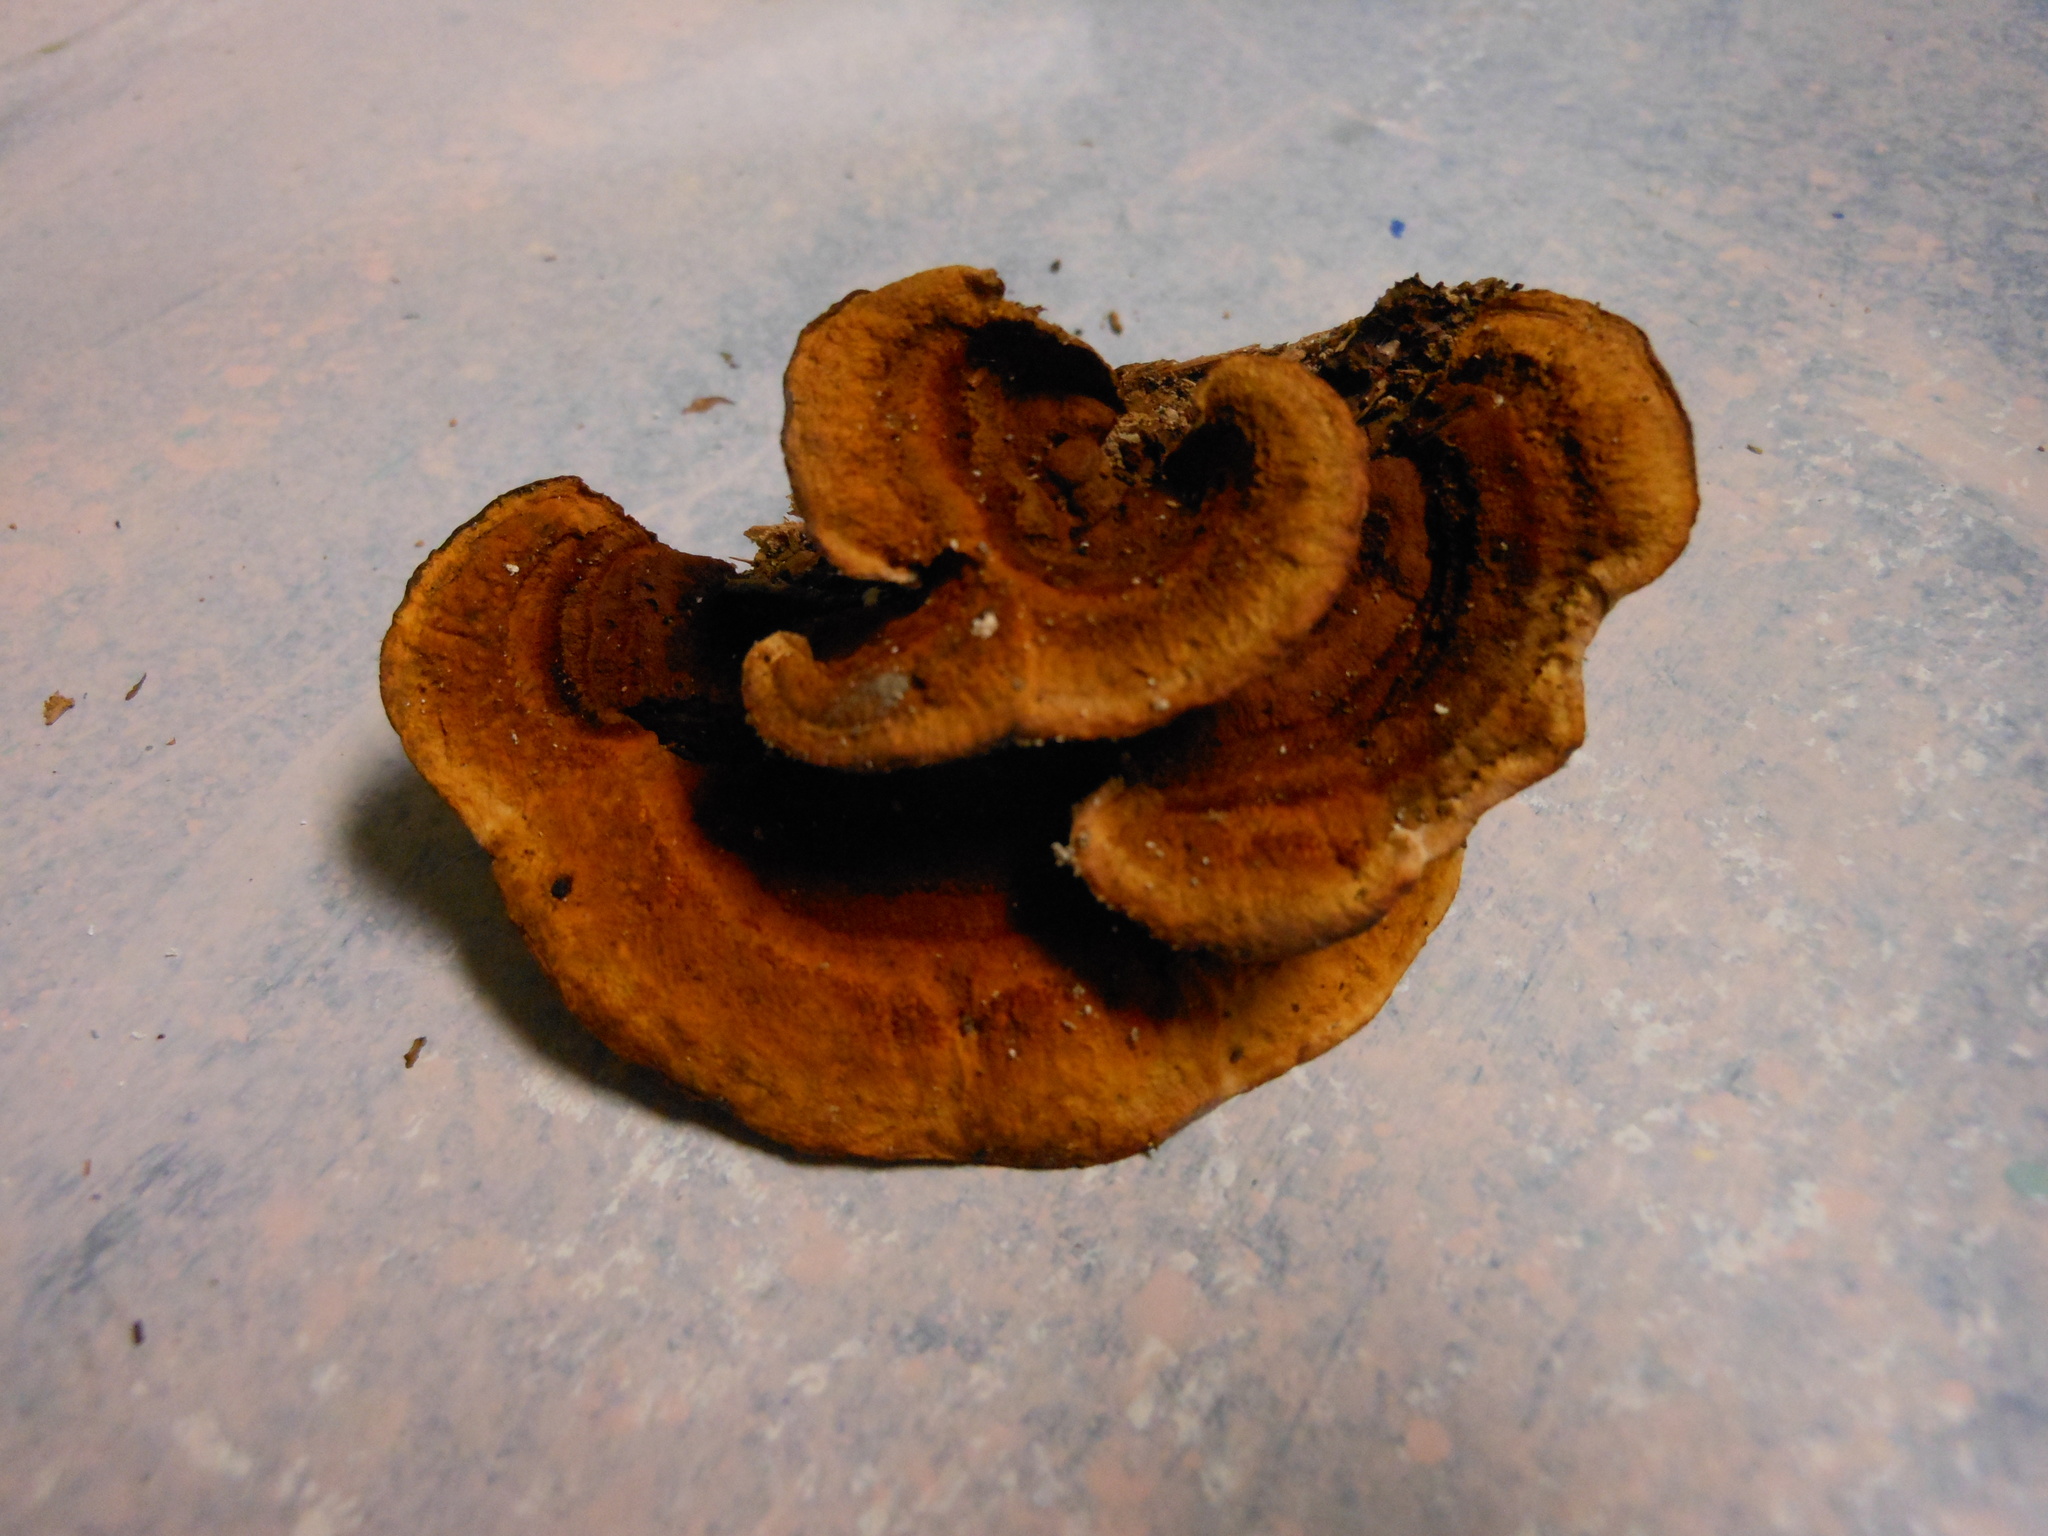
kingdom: Fungi
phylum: Basidiomycota
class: Agaricomycetes
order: Gloeophyllales
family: Gloeophyllaceae
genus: Gloeophyllum
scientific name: Gloeophyllum sepiarium
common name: Conifer mazegill
